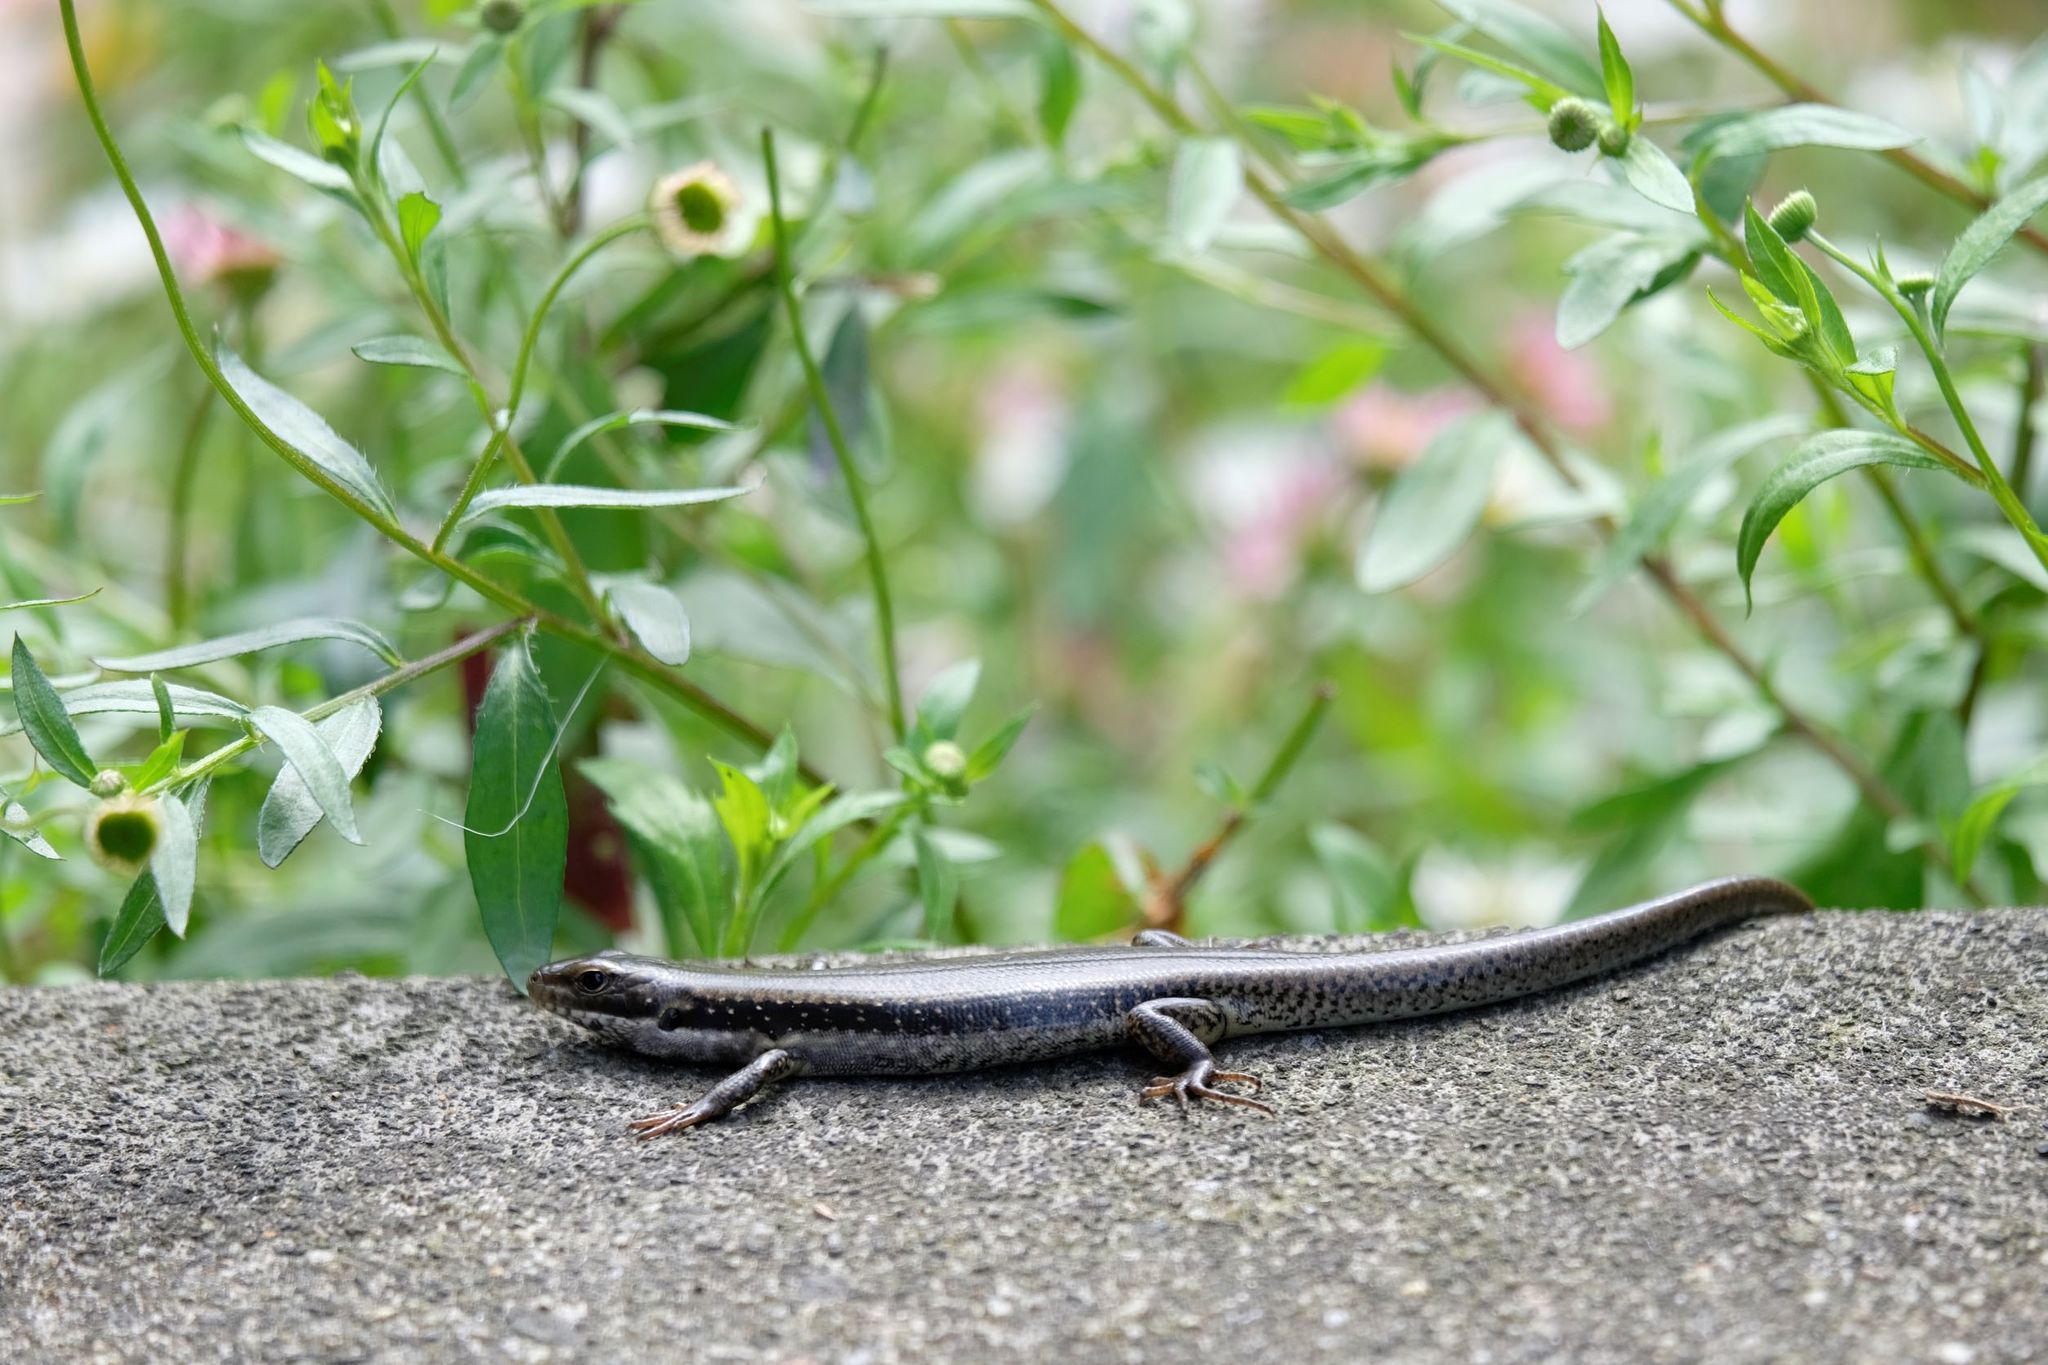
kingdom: Animalia
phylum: Chordata
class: Squamata
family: Scincidae
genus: Eulamprus
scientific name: Eulamprus tympanum
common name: Cool-temperate water-skink
